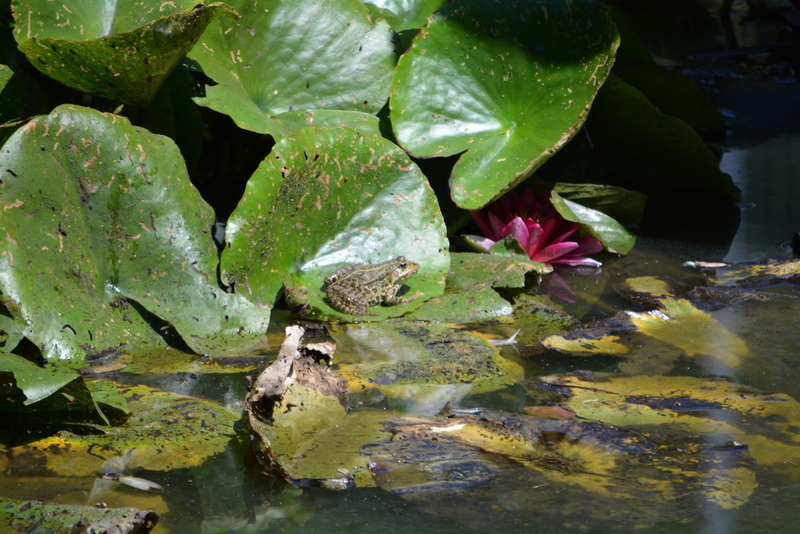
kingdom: Animalia
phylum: Chordata
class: Amphibia
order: Anura
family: Ranidae
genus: Pelophylax
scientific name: Pelophylax ridibundus
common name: Marsh frog
